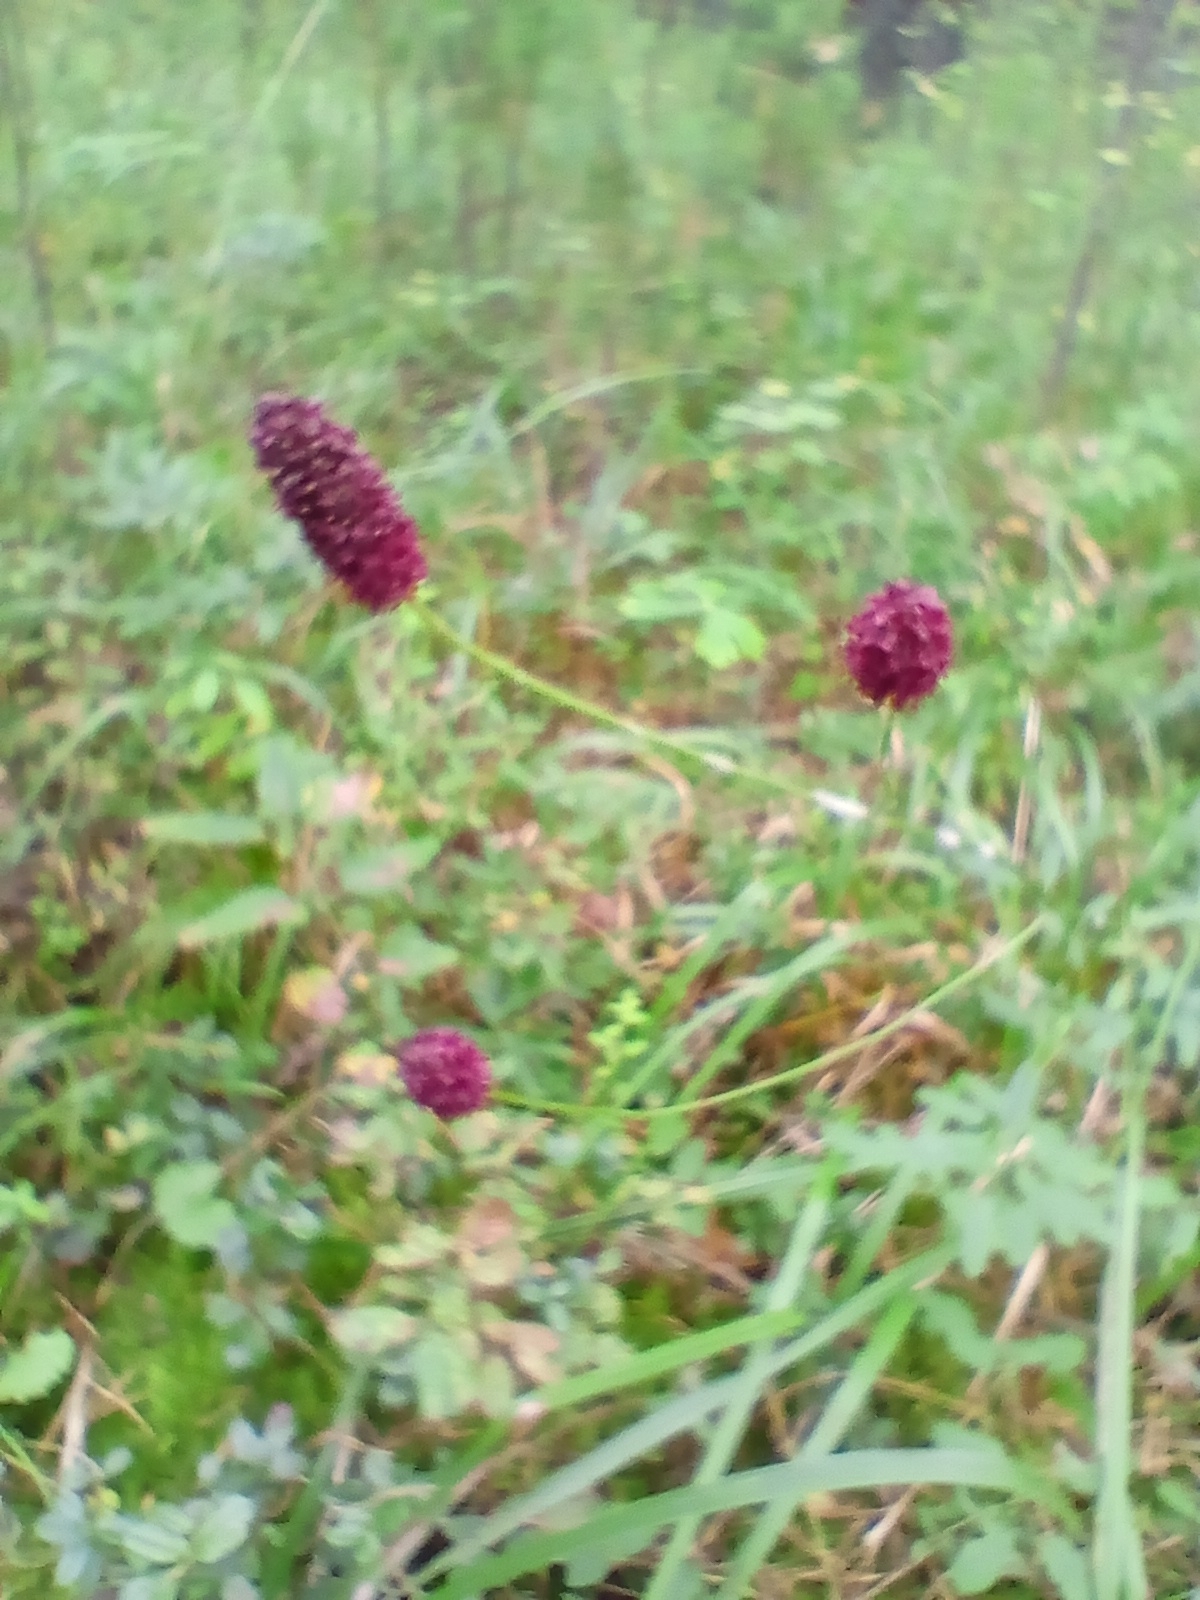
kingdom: Plantae
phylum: Tracheophyta
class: Magnoliopsida
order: Rosales
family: Rosaceae
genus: Sanguisorba
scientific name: Sanguisorba officinalis
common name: Great burnet
